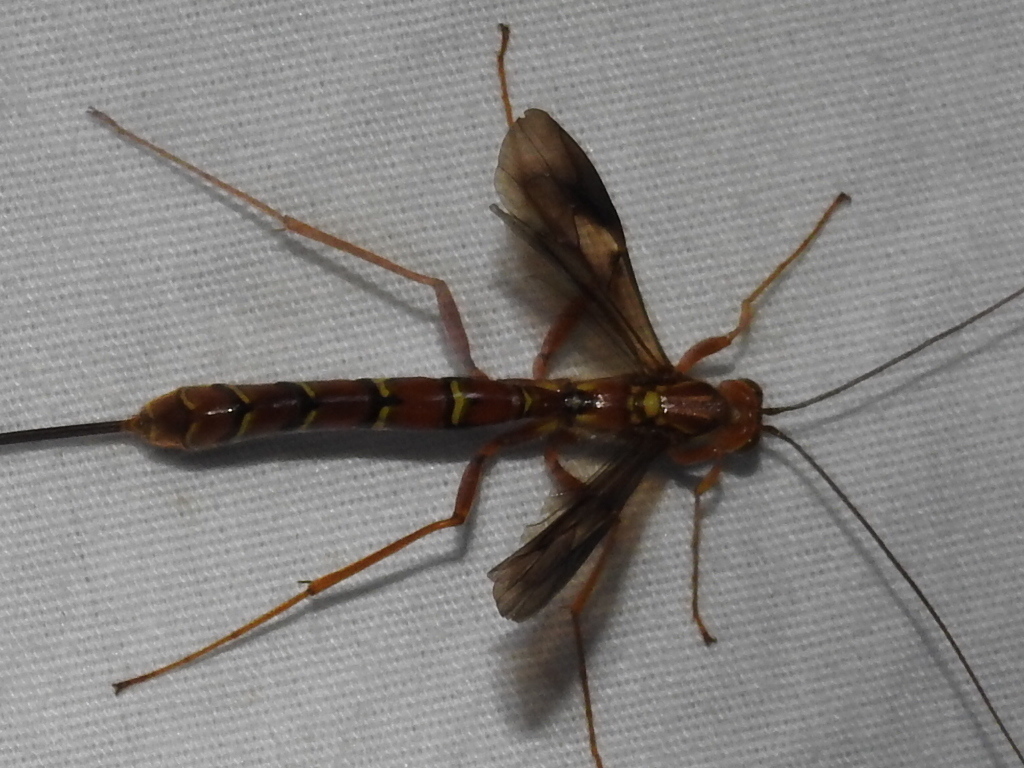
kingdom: Animalia
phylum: Arthropoda
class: Insecta
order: Hymenoptera
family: Ichneumonidae
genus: Megarhyssa
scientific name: Megarhyssa greenei
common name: Greene's giant ichneumonid wasp
